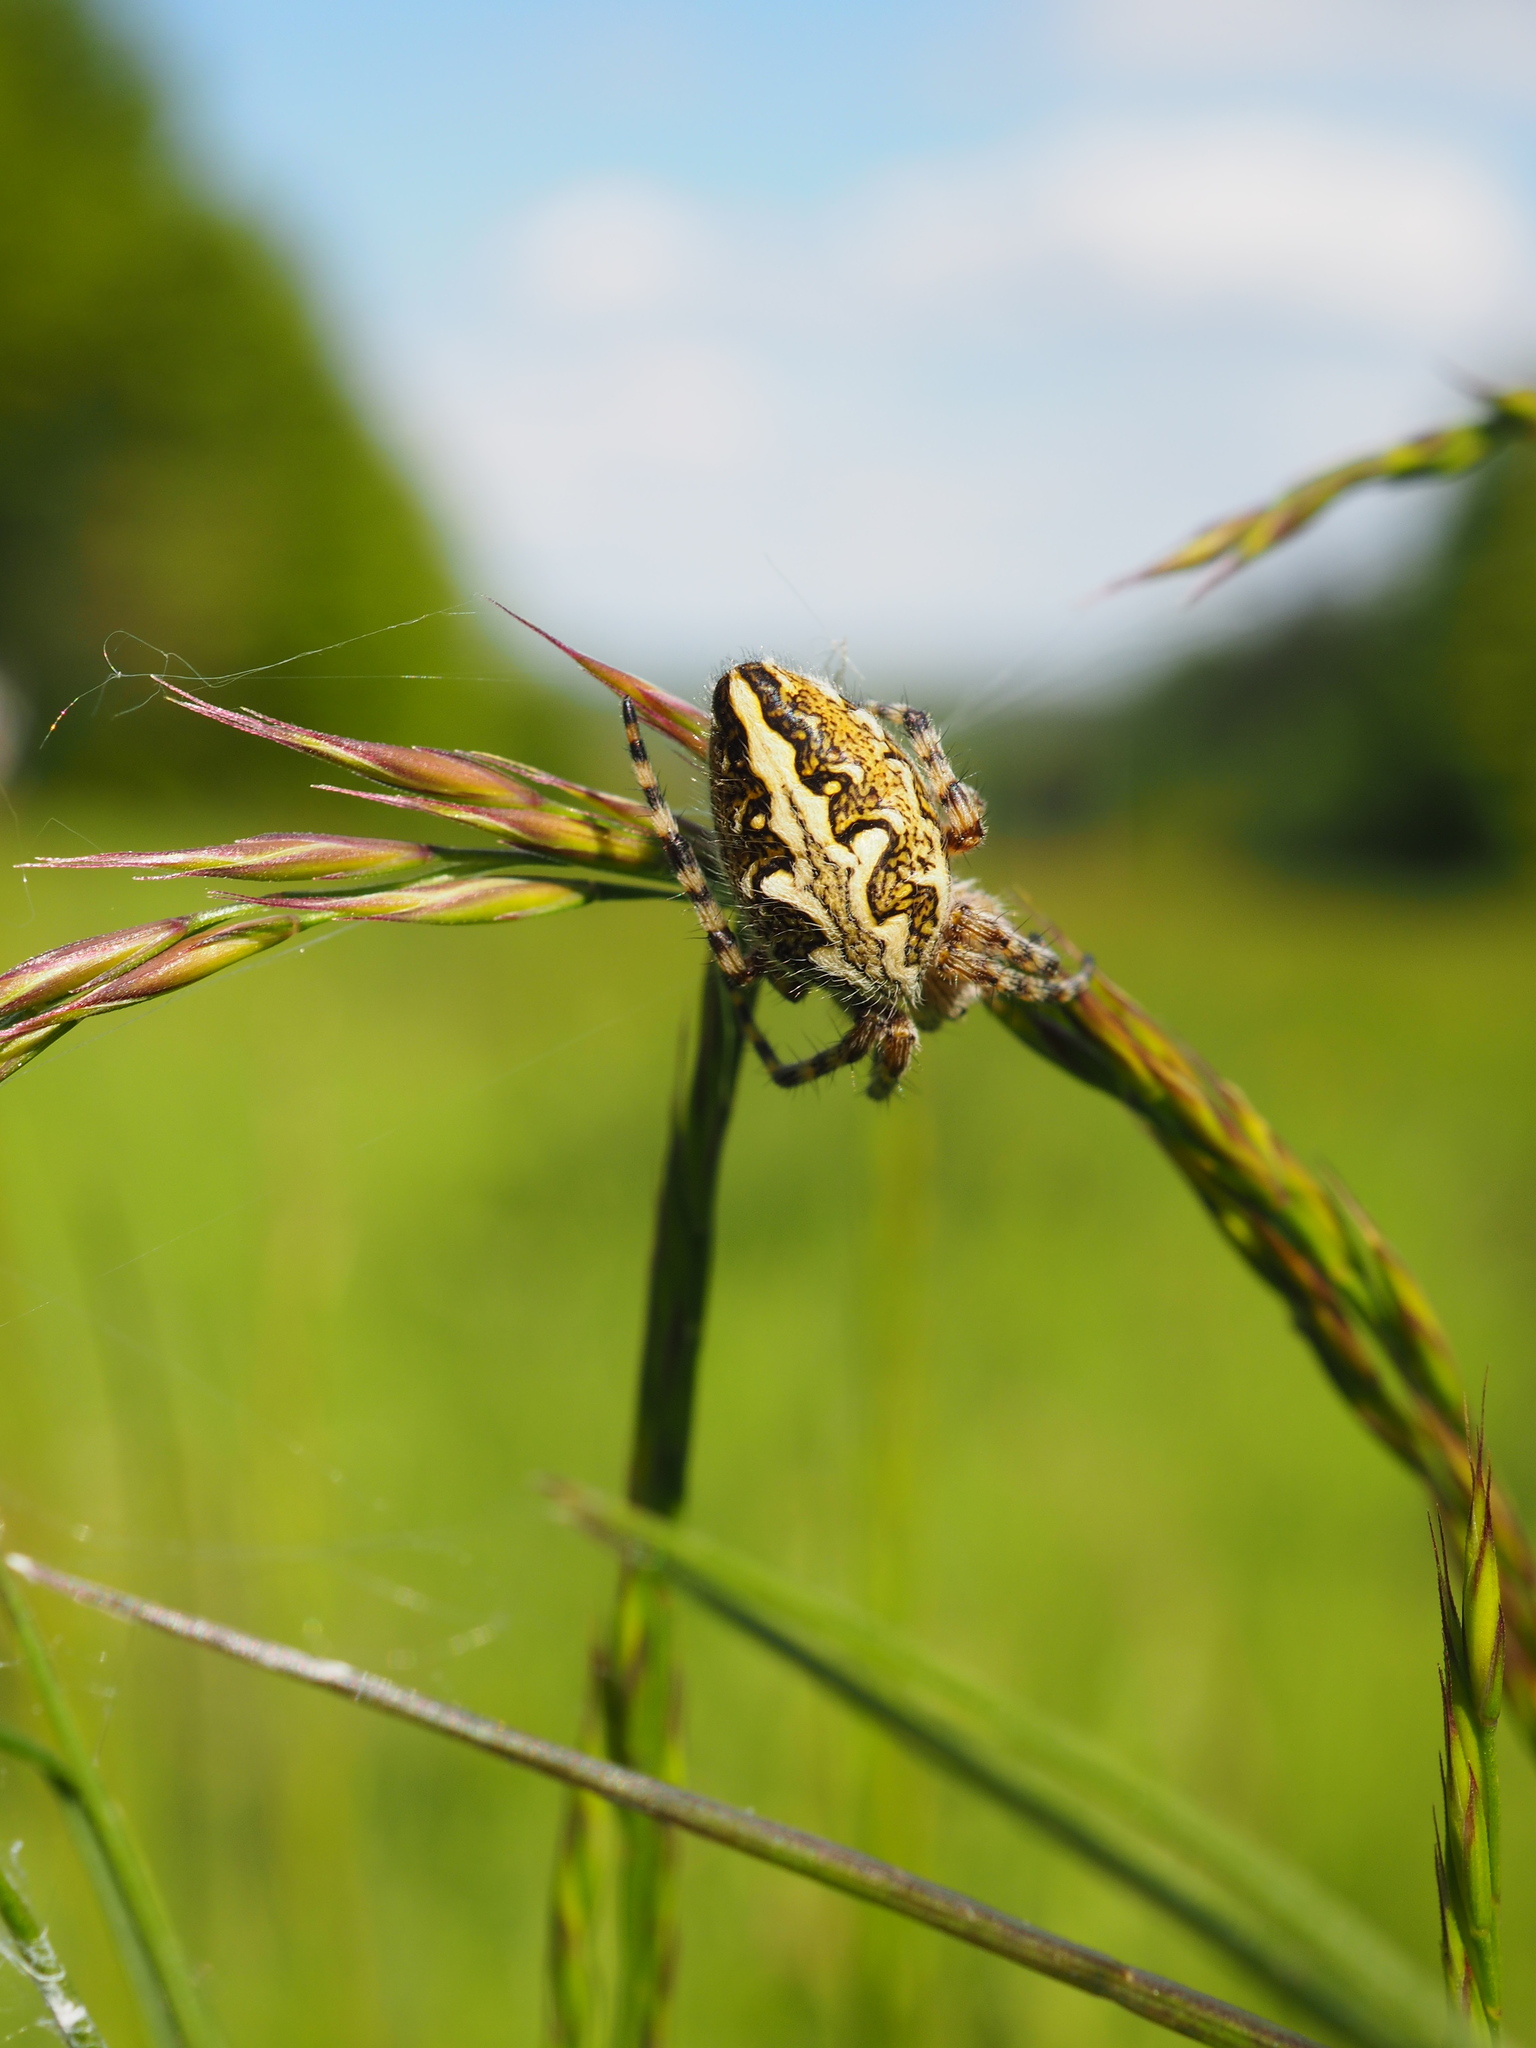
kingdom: Animalia
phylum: Arthropoda
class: Arachnida
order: Araneae
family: Araneidae
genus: Aculepeira
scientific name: Aculepeira ceropegia
